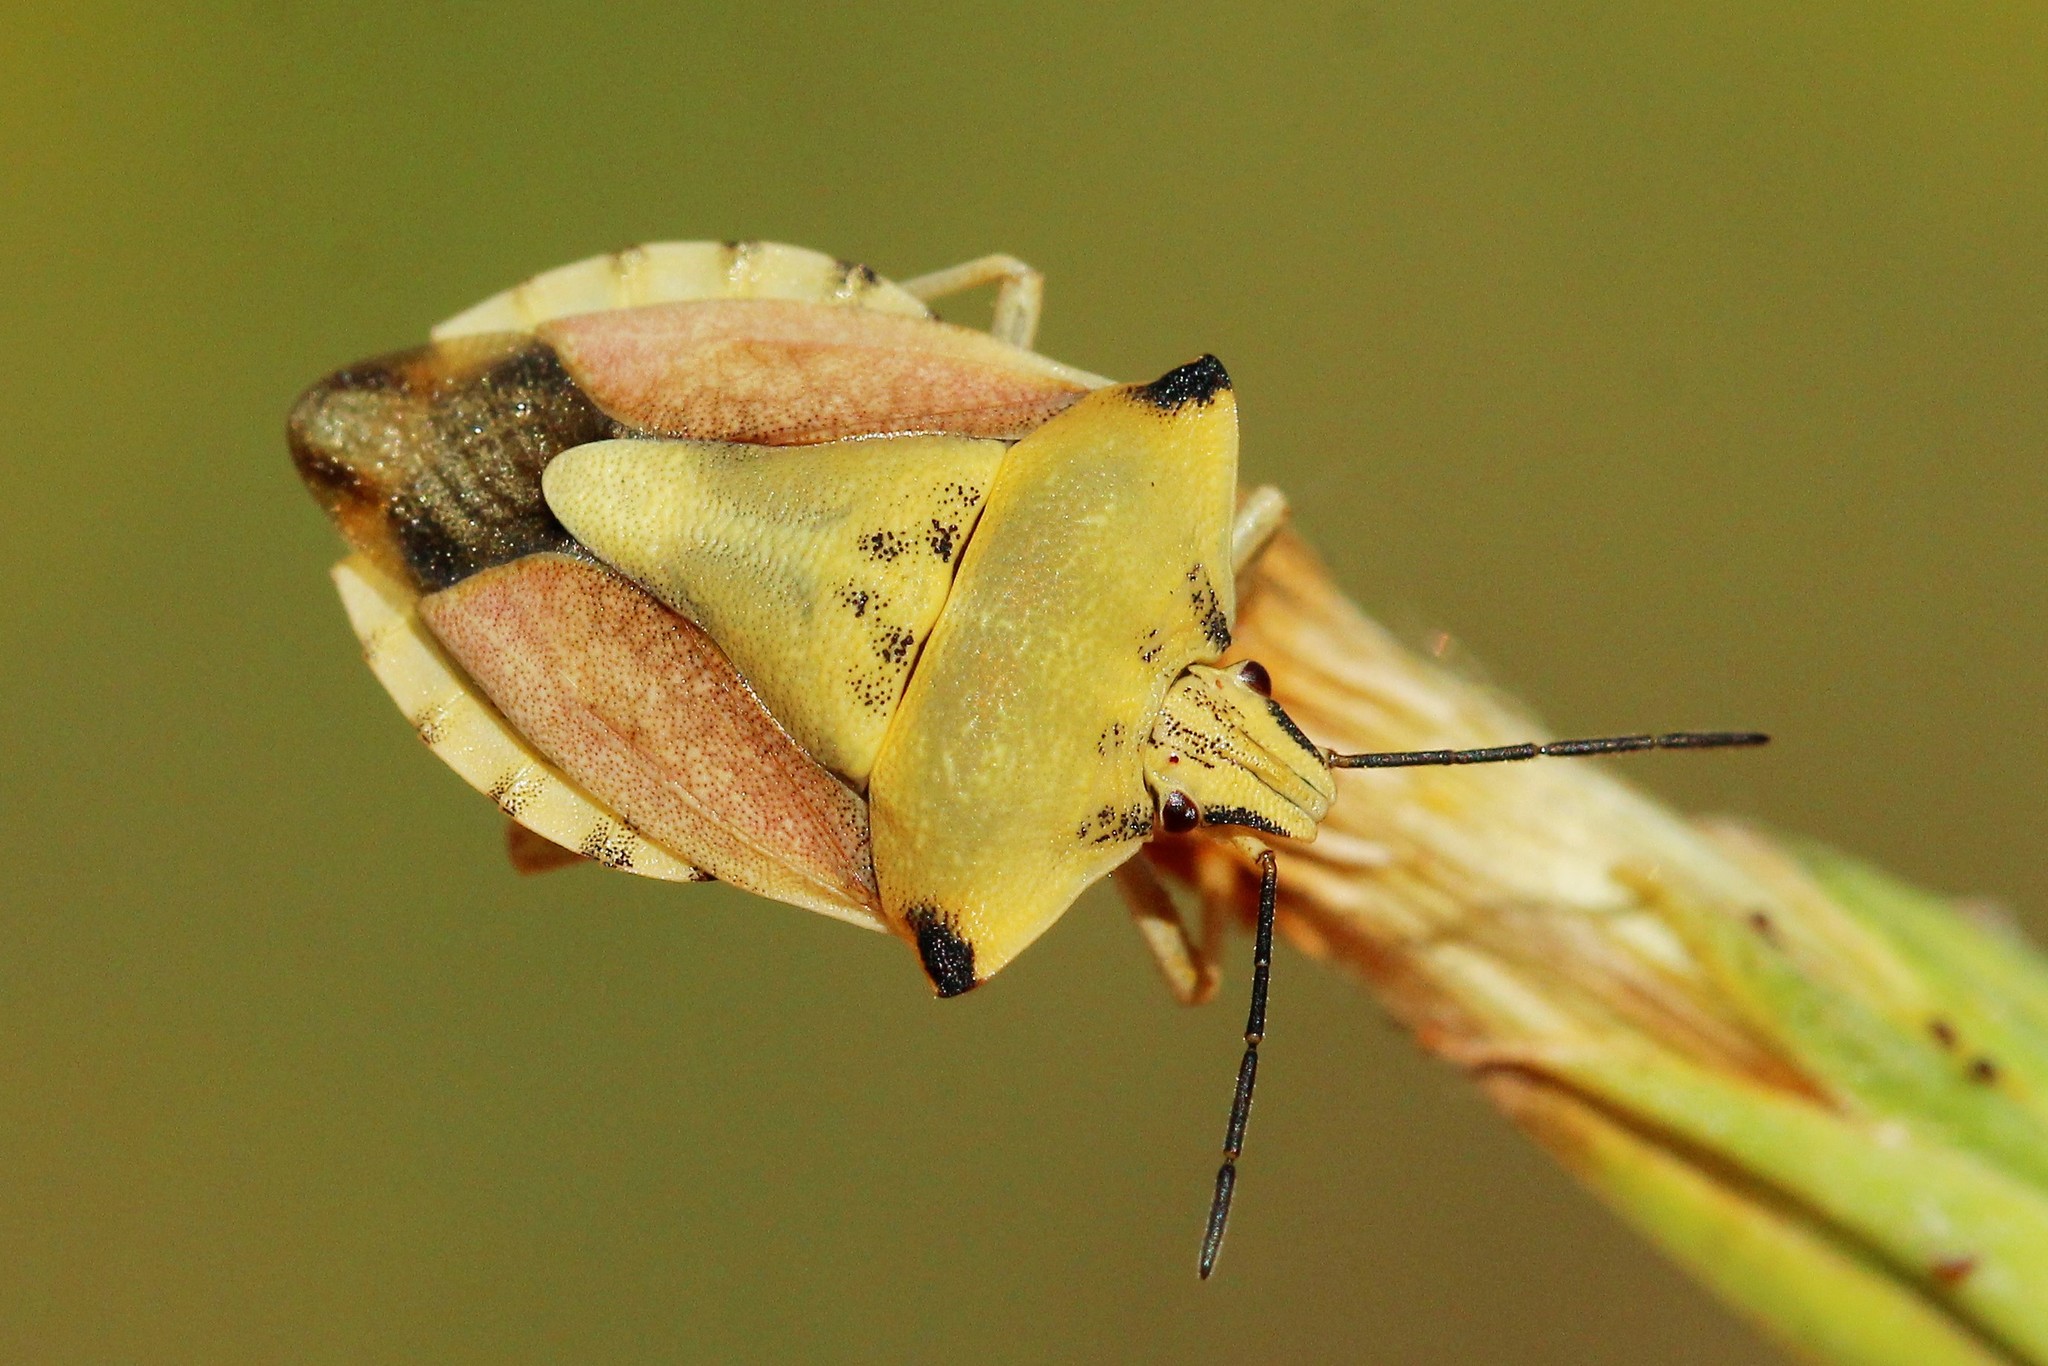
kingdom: Animalia
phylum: Arthropoda
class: Insecta
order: Hemiptera
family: Pentatomidae
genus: Carpocoris
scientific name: Carpocoris fuscispinus
